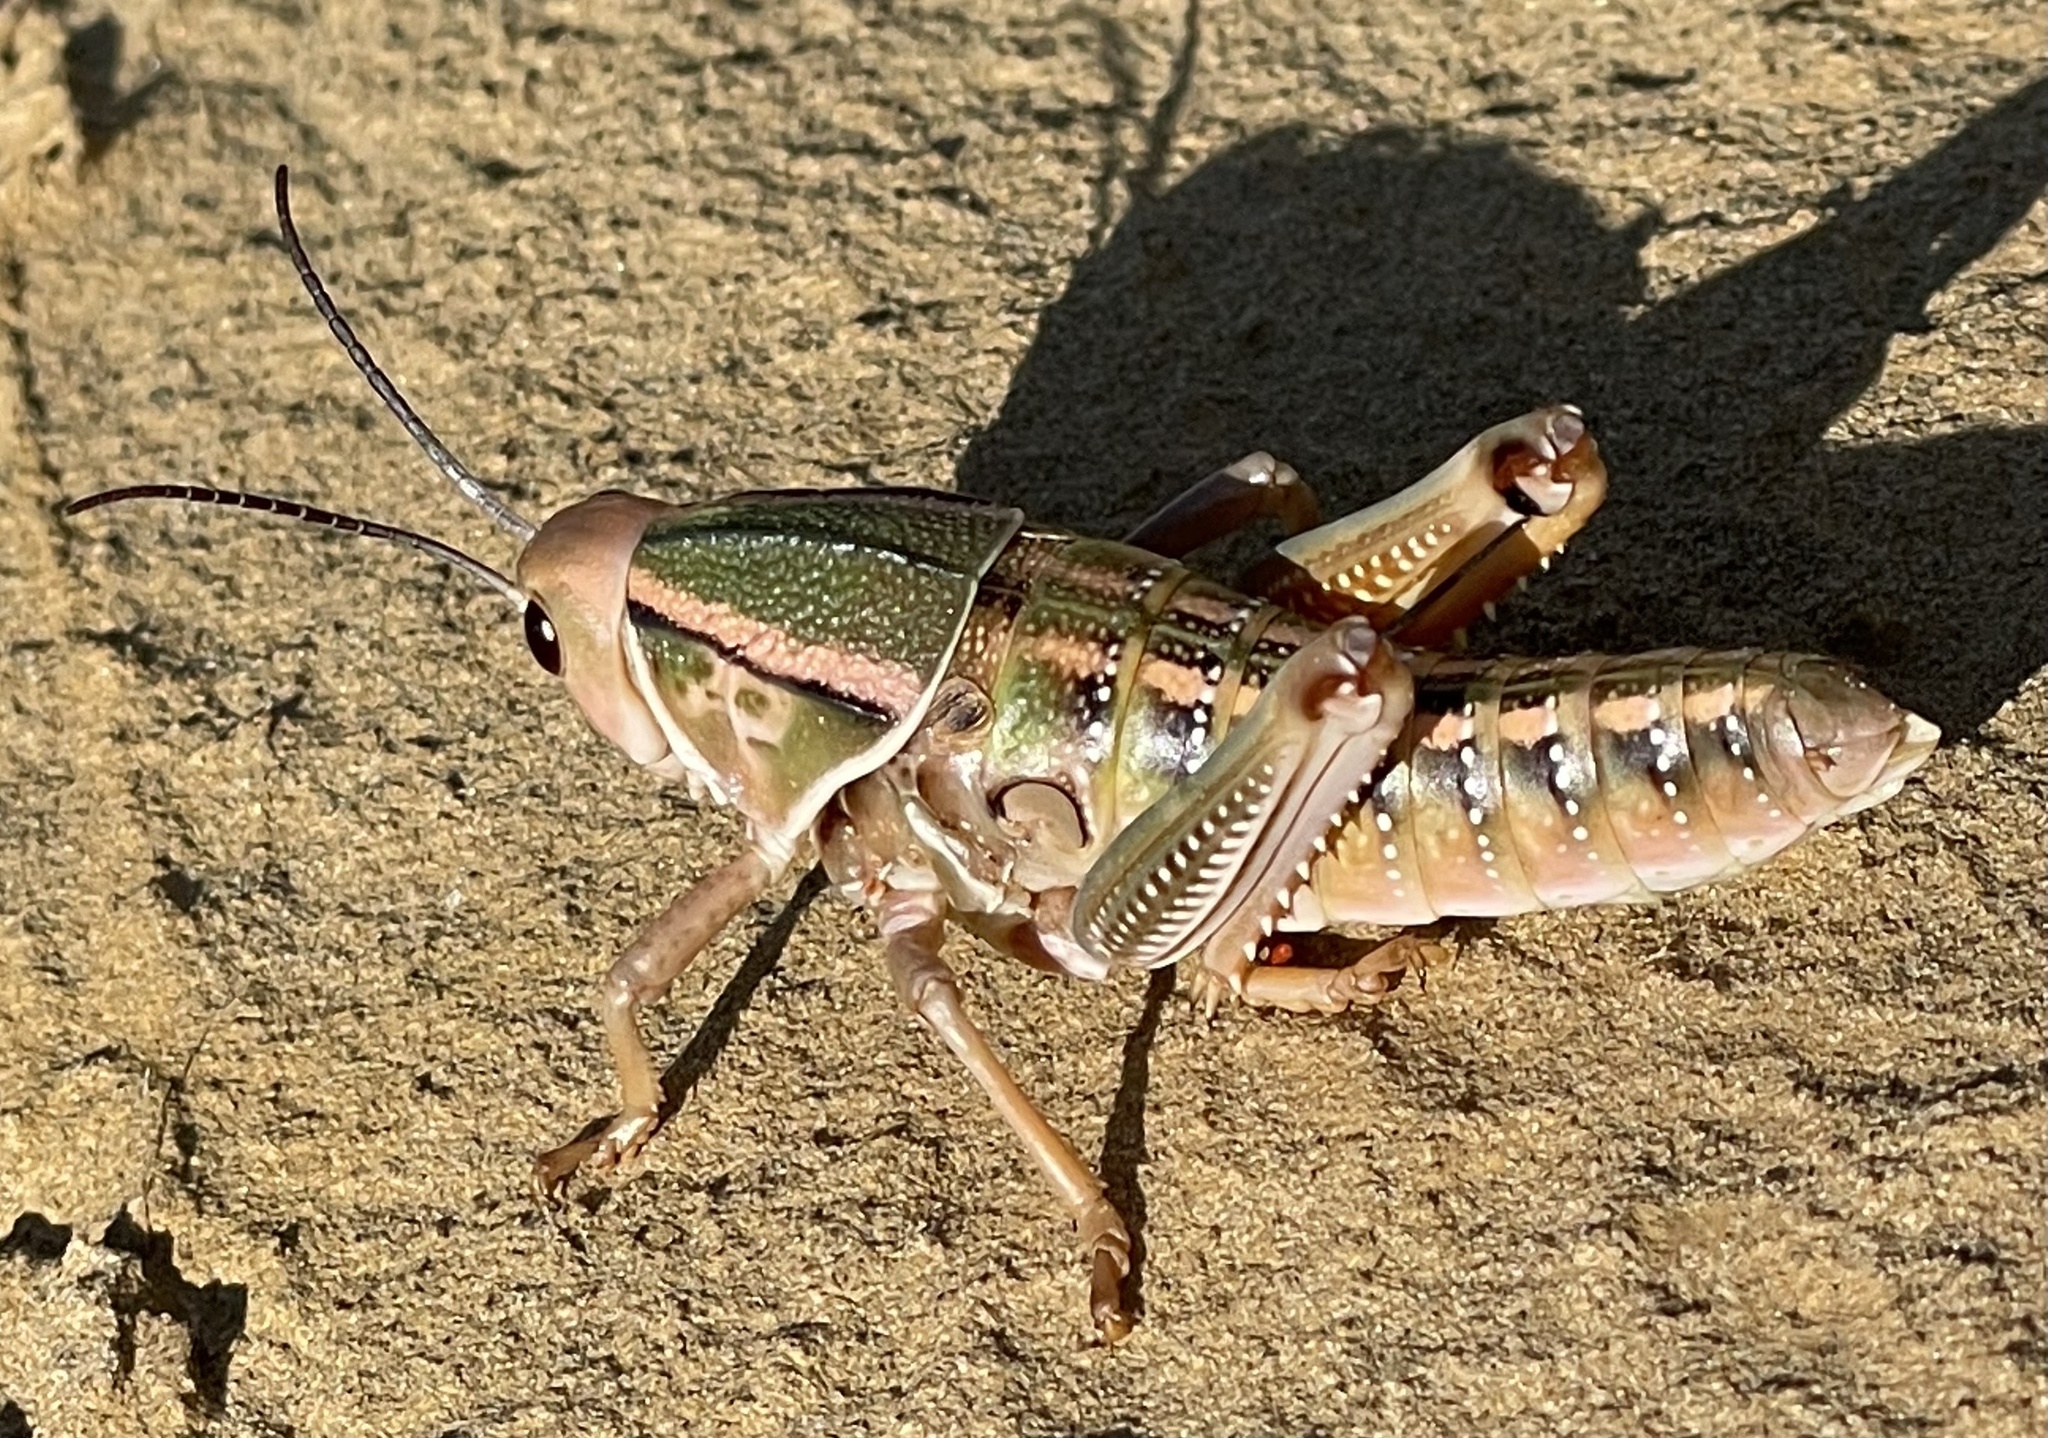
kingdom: Animalia
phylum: Arthropoda
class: Insecta
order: Orthoptera
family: Romaleidae
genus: Brachystola
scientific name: Brachystola magna
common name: Plains lubber grasshopper
